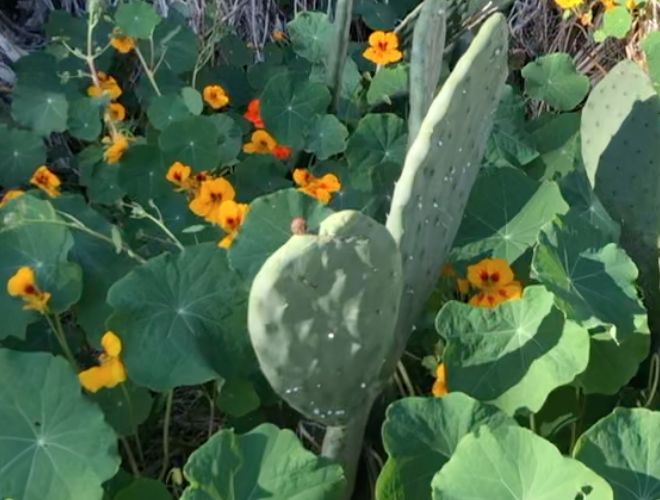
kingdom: Plantae
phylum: Tracheophyta
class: Magnoliopsida
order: Caryophyllales
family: Cactaceae
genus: Opuntia
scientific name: Opuntia ficus-indica
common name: Barbary fig
